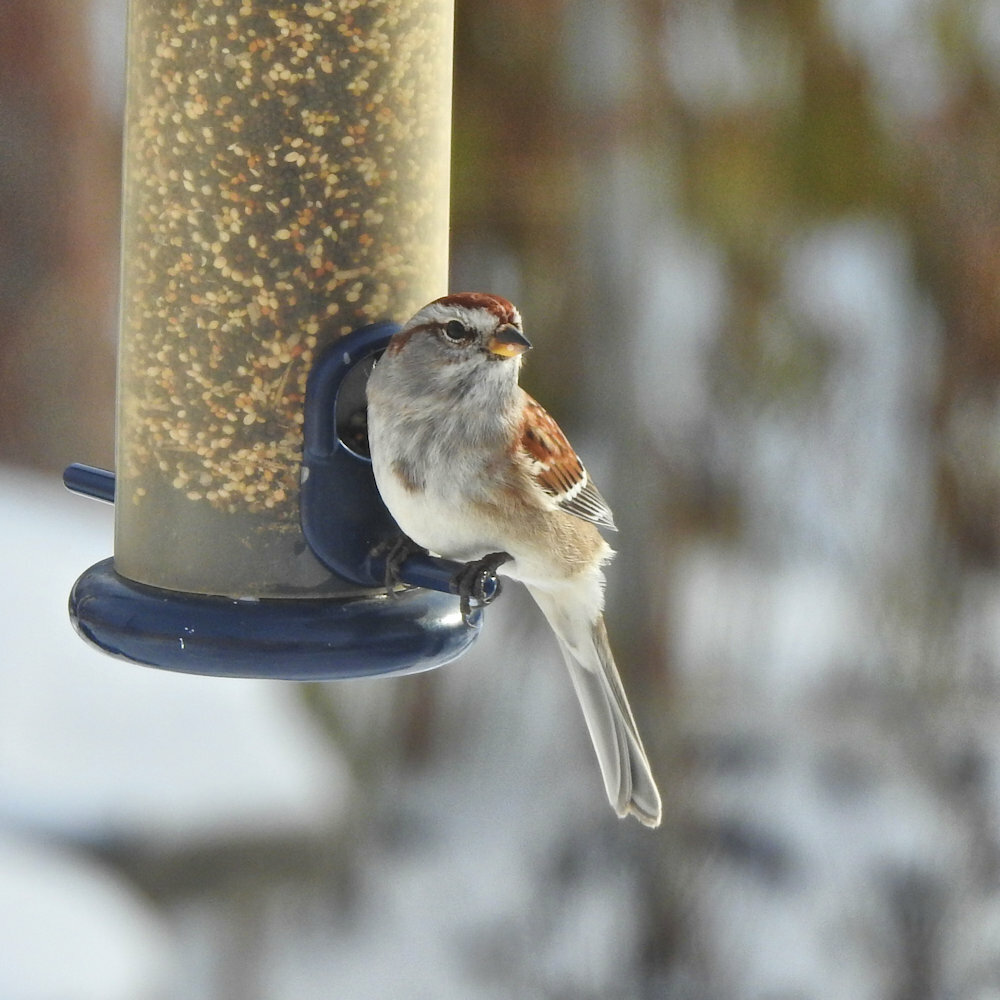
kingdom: Animalia
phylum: Chordata
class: Aves
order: Passeriformes
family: Passerellidae
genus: Spizelloides
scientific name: Spizelloides arborea
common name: American tree sparrow
